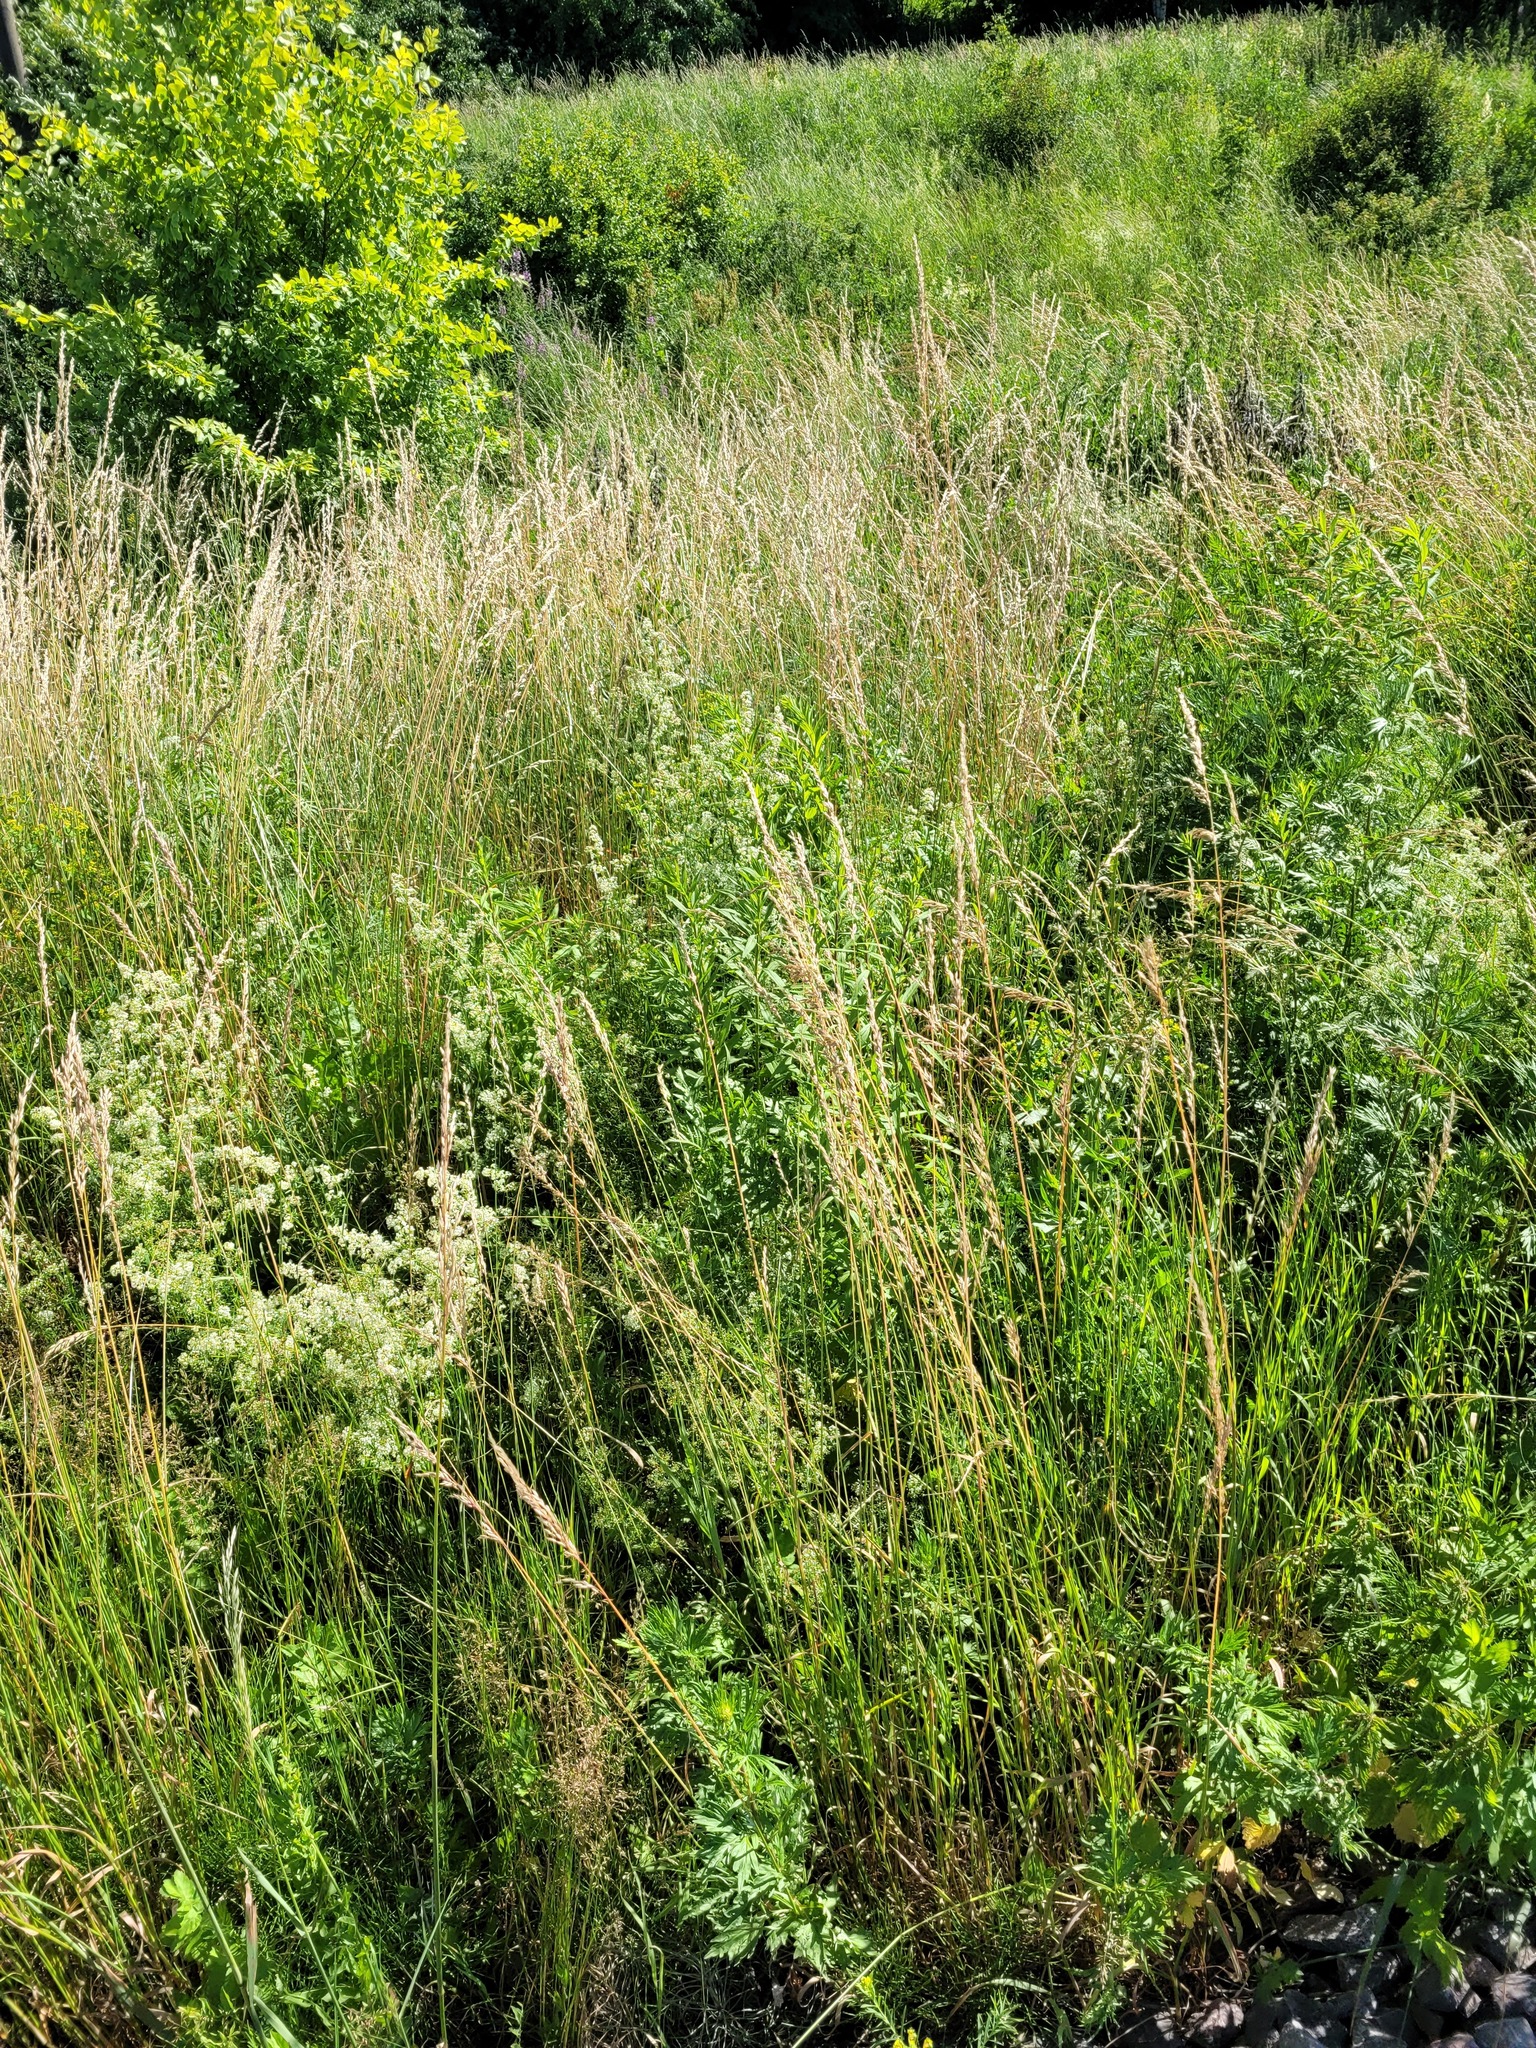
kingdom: Plantae
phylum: Tracheophyta
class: Liliopsida
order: Poales
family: Poaceae
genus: Arrhenatherum
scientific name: Arrhenatherum elatius
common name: Tall oatgrass
